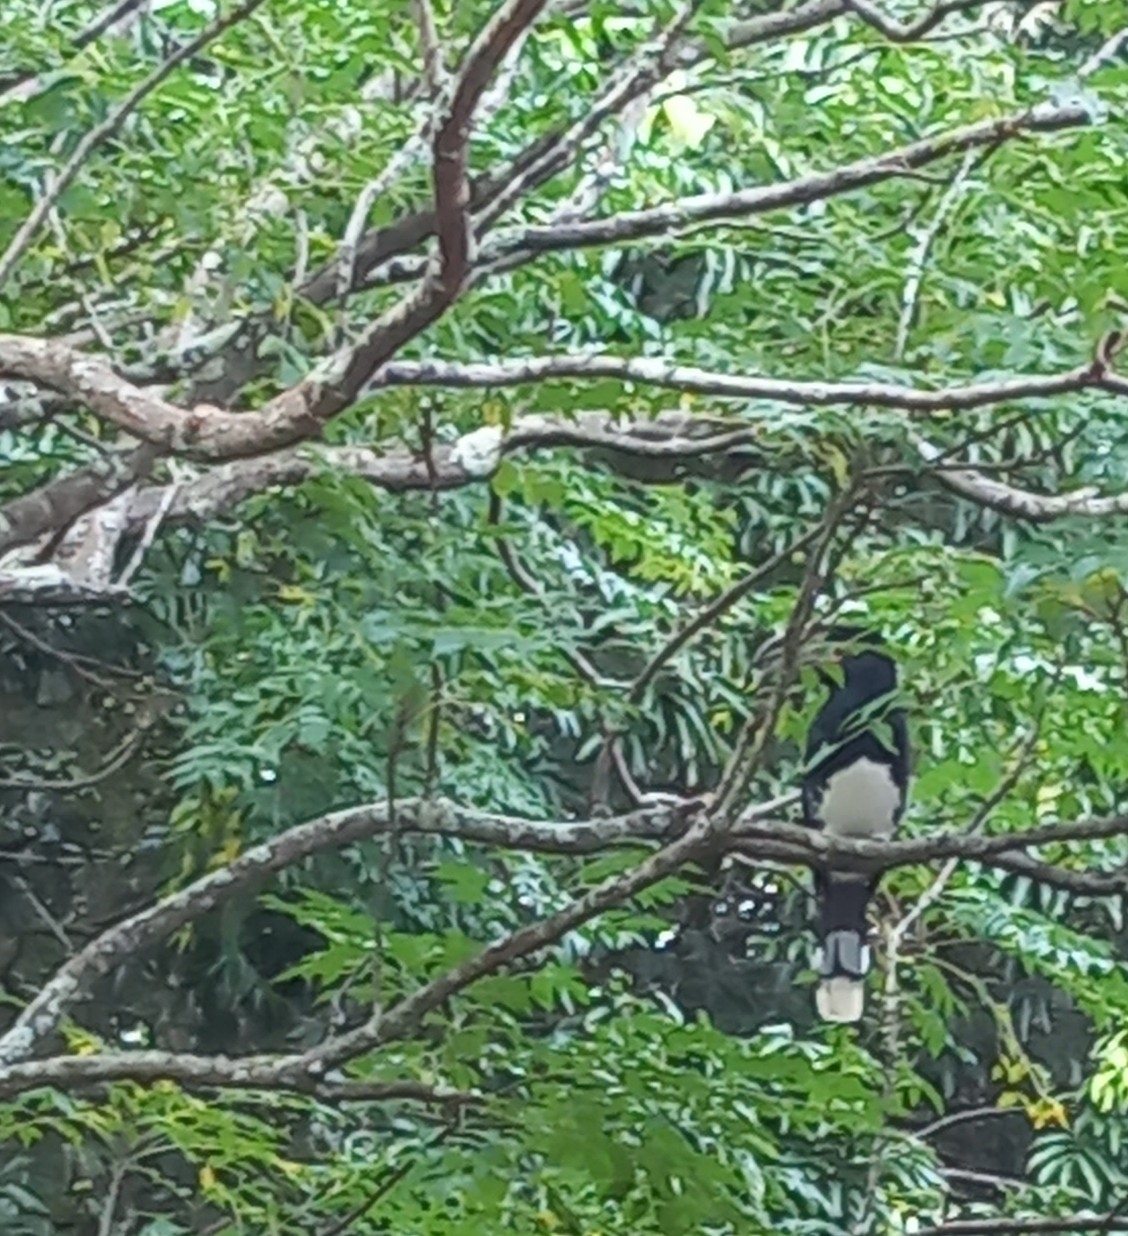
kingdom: Animalia
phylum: Chordata
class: Aves
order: Bucerotiformes
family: Bucerotidae
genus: Bycanistes
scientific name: Bycanistes bucinator
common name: Trumpeter hornbill
